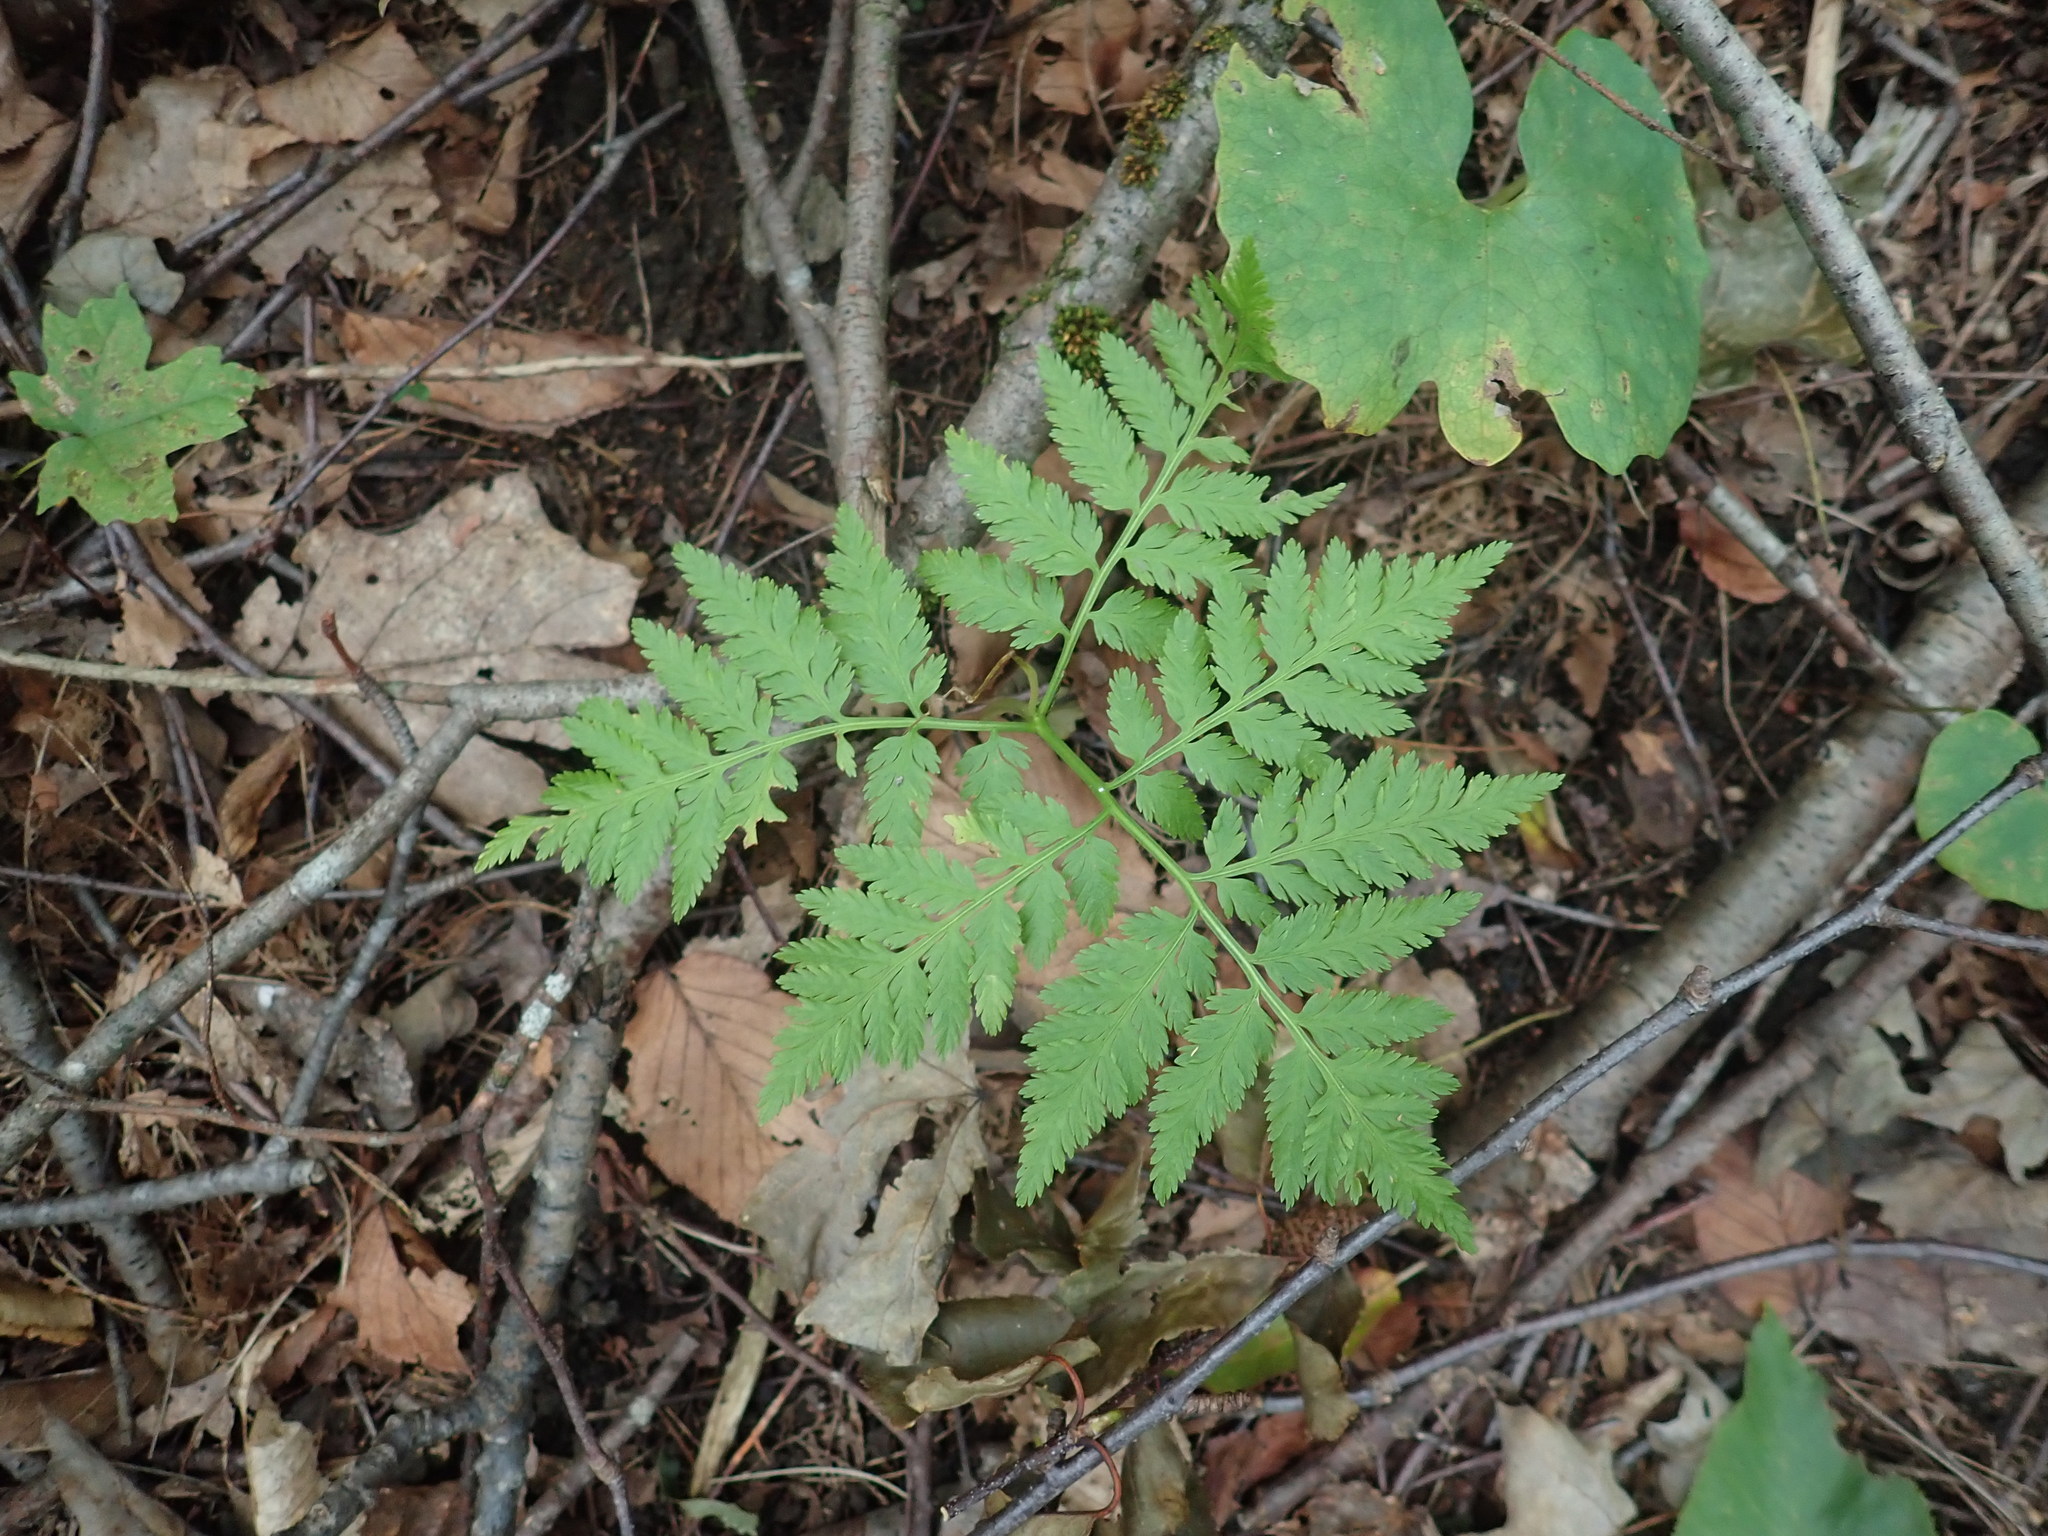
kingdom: Plantae
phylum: Tracheophyta
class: Polypodiopsida
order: Ophioglossales
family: Ophioglossaceae
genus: Botrypus
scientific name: Botrypus virginianus
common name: Common grapefern
